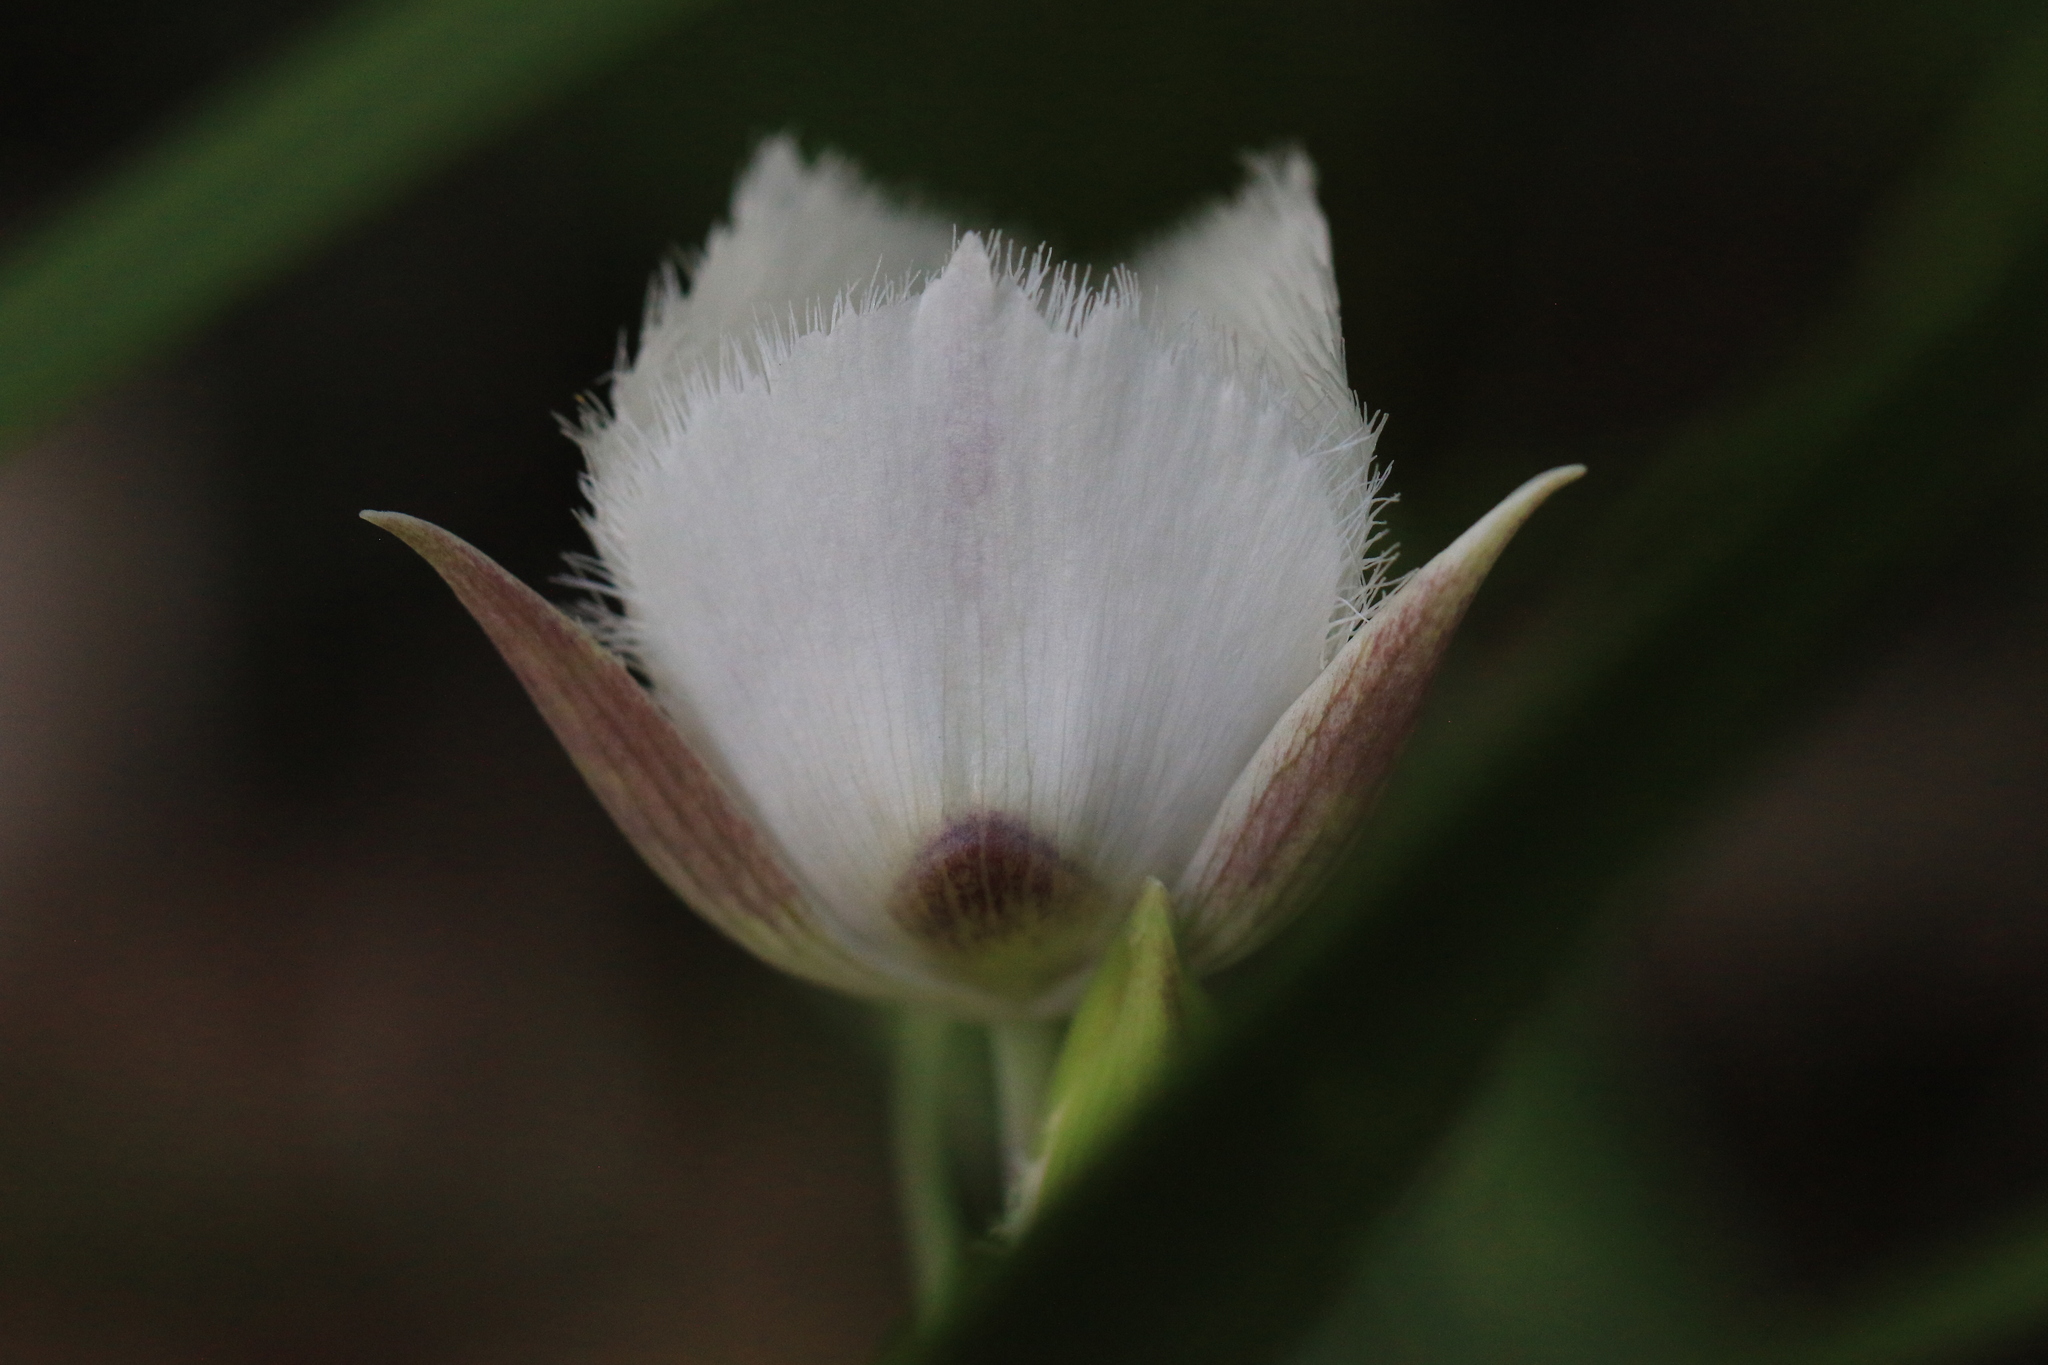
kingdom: Plantae
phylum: Tracheophyta
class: Liliopsida
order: Liliales
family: Liliaceae
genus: Calochortus
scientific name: Calochortus tolmiei
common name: Pussy-ears
